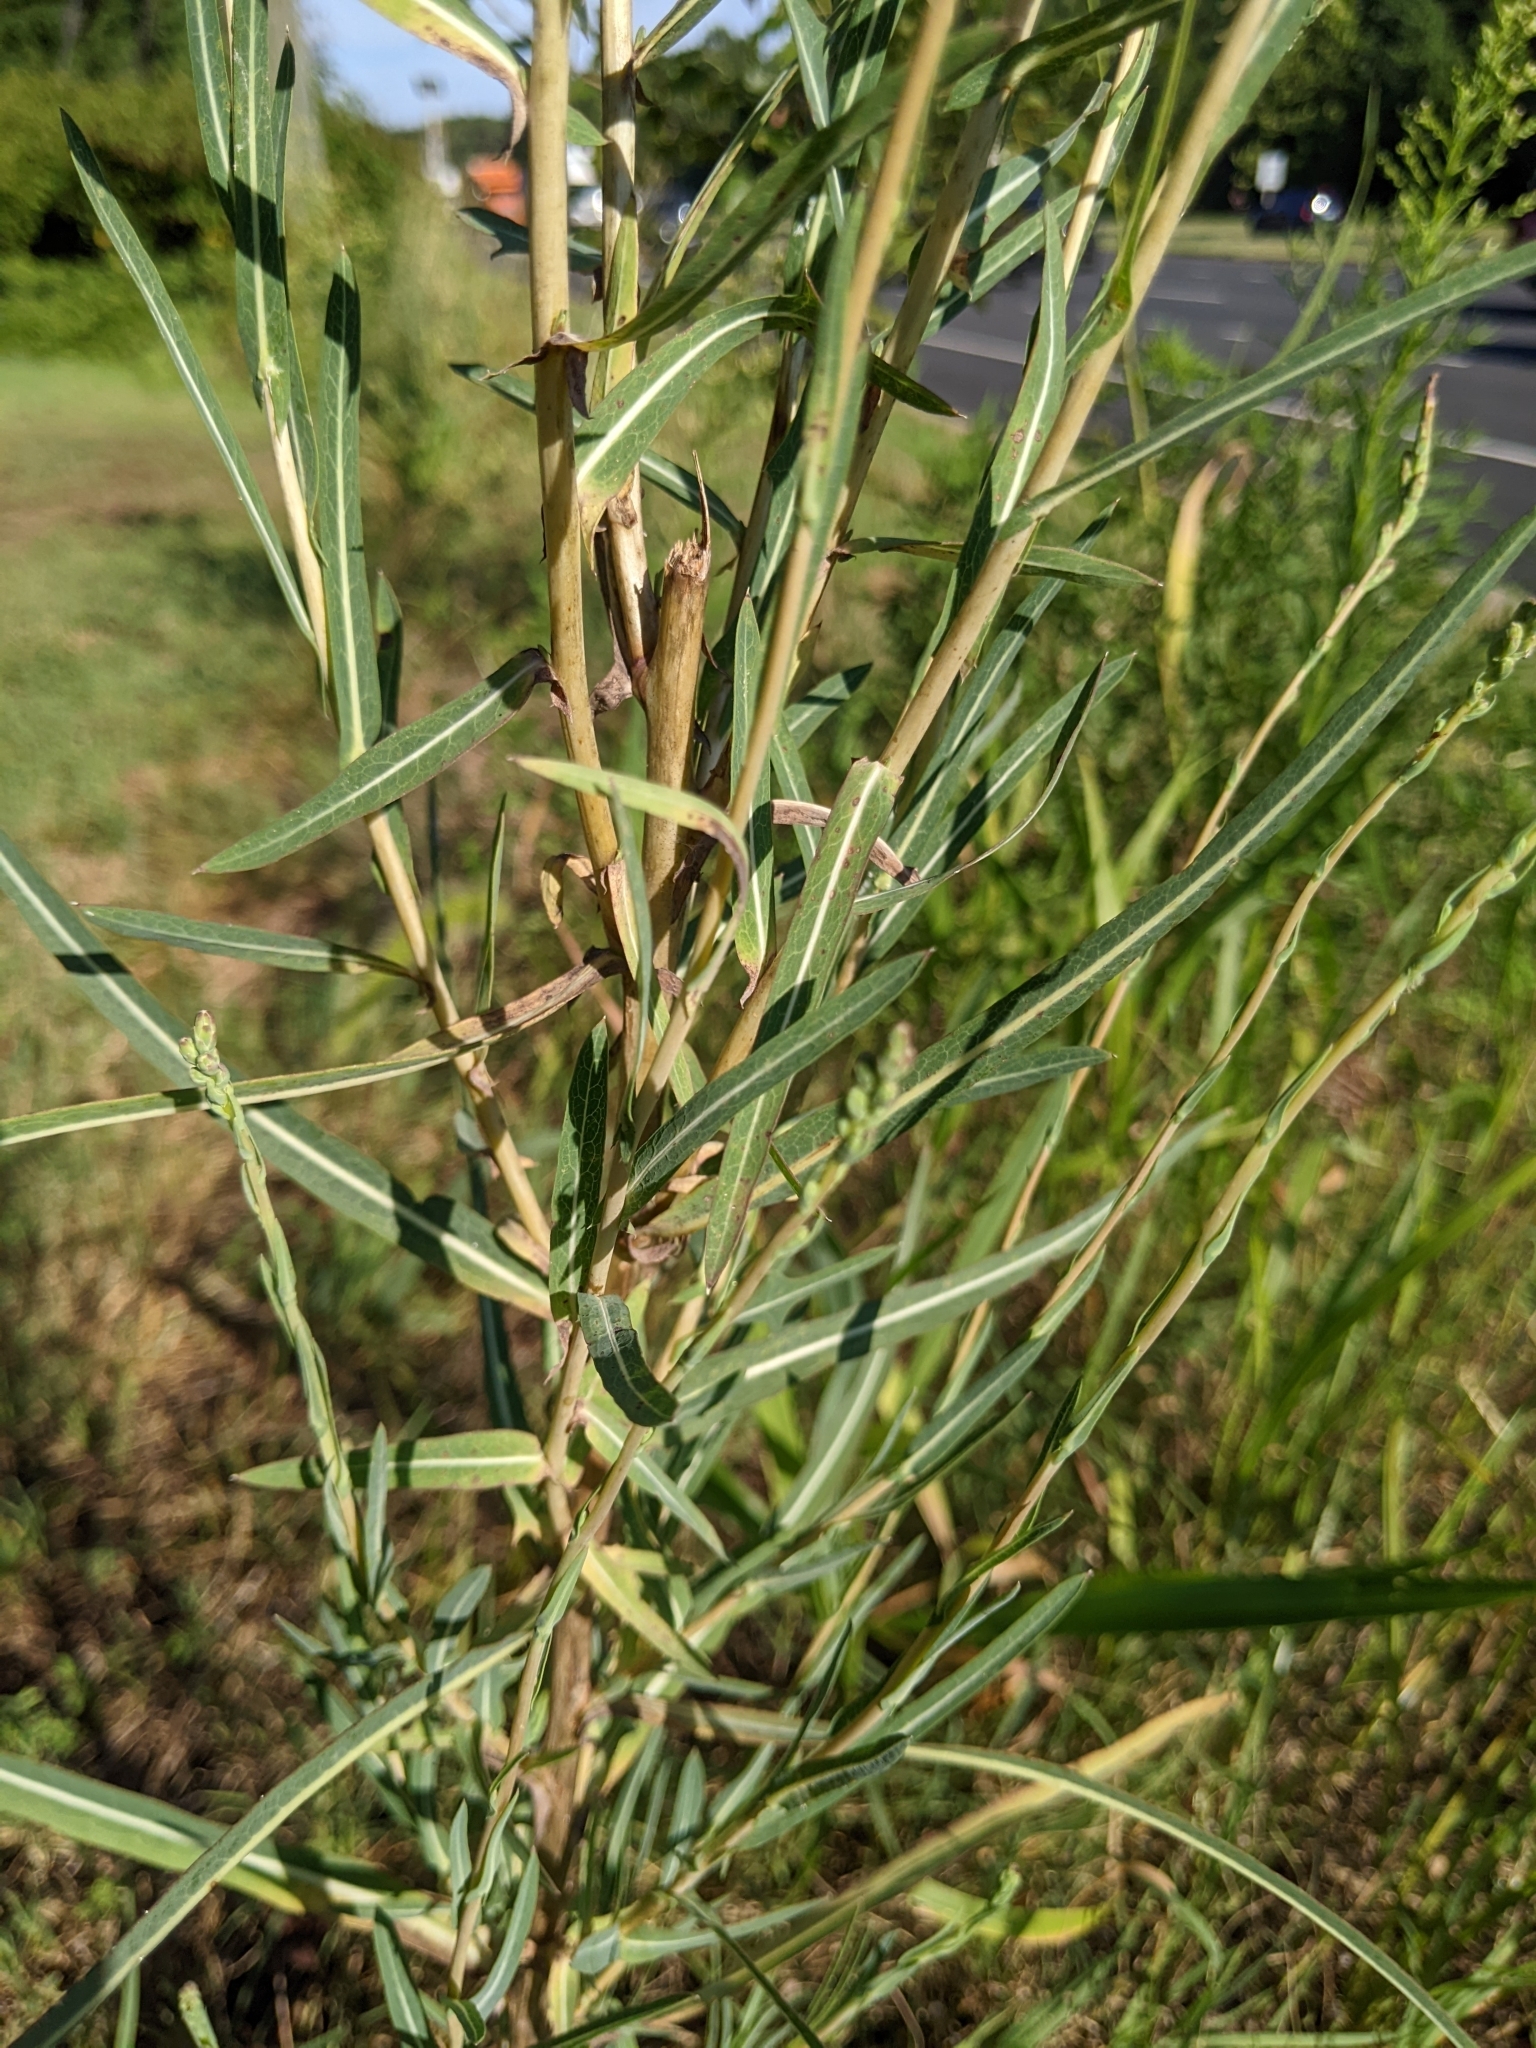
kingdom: Plantae
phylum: Tracheophyta
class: Magnoliopsida
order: Asterales
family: Asteraceae
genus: Lactuca
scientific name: Lactuca saligna
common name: Wild lettuce
